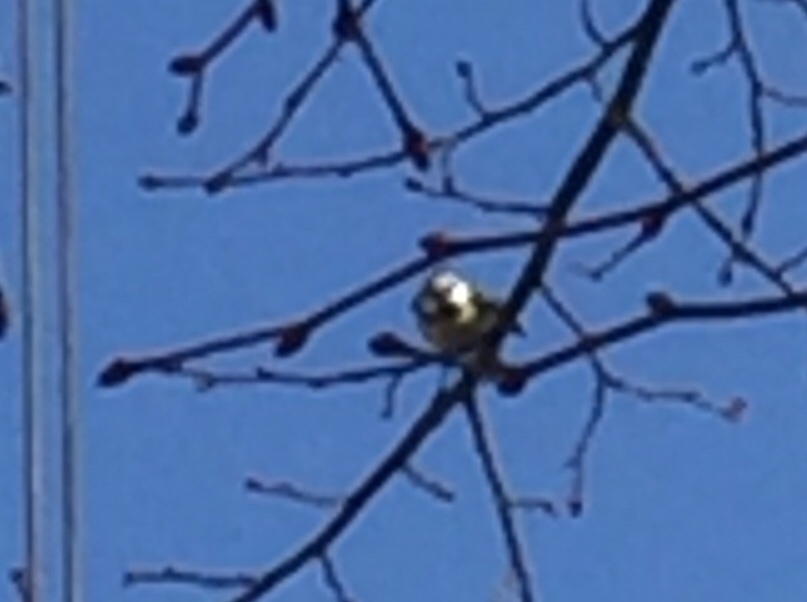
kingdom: Animalia
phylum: Chordata
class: Aves
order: Passeriformes
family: Paridae
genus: Cyanistes
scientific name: Cyanistes caeruleus
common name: Eurasian blue tit
